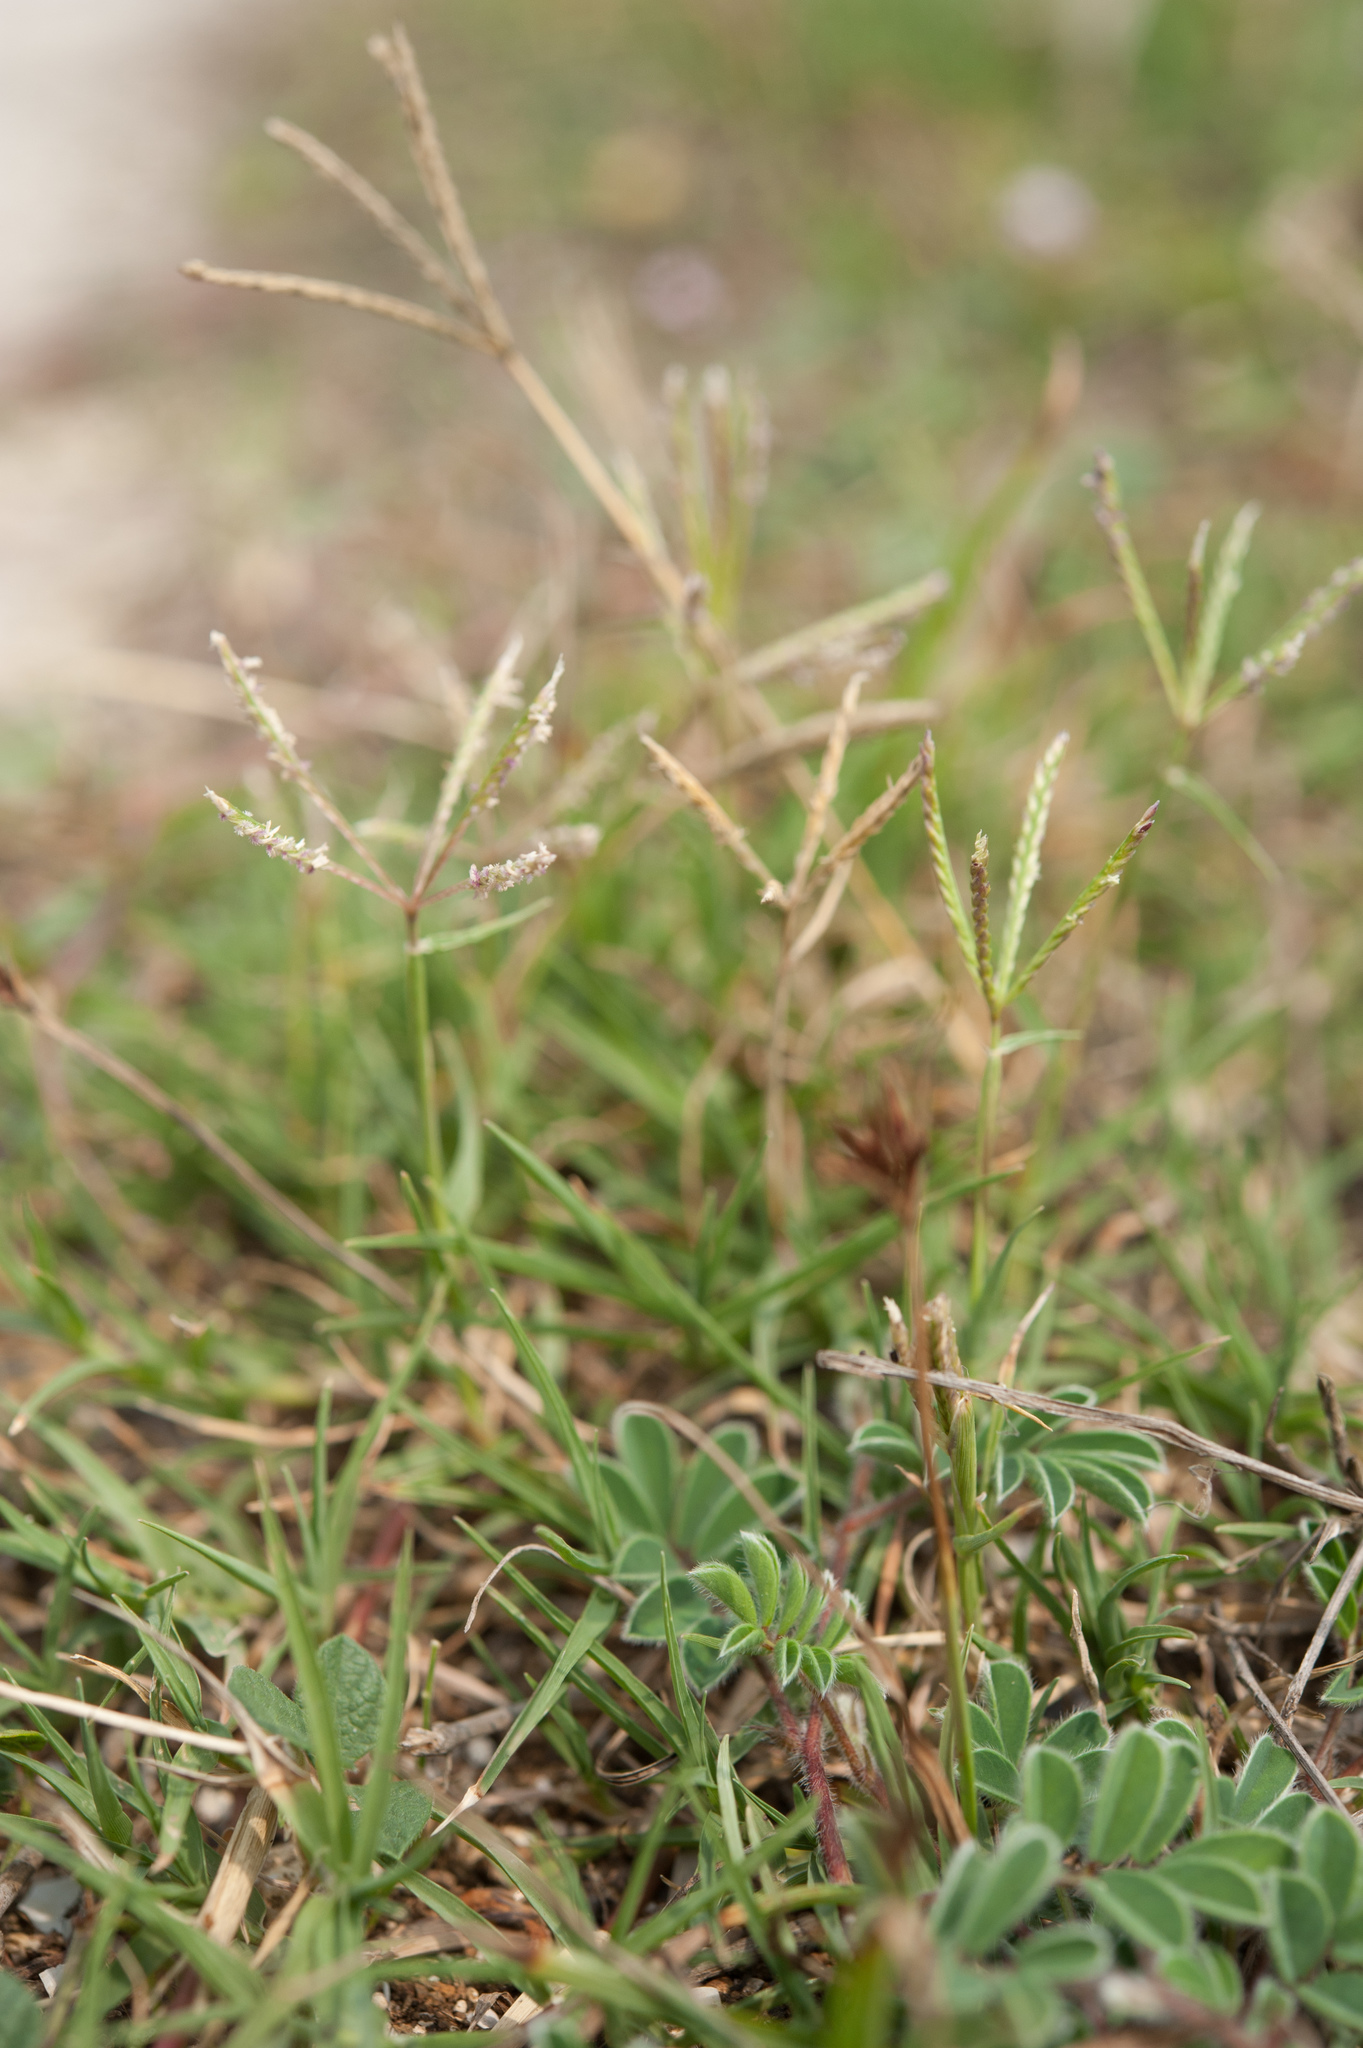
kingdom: Plantae
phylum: Tracheophyta
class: Liliopsida
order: Poales
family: Poaceae
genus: Cynodon
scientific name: Cynodon dactylon
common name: Bermuda grass
